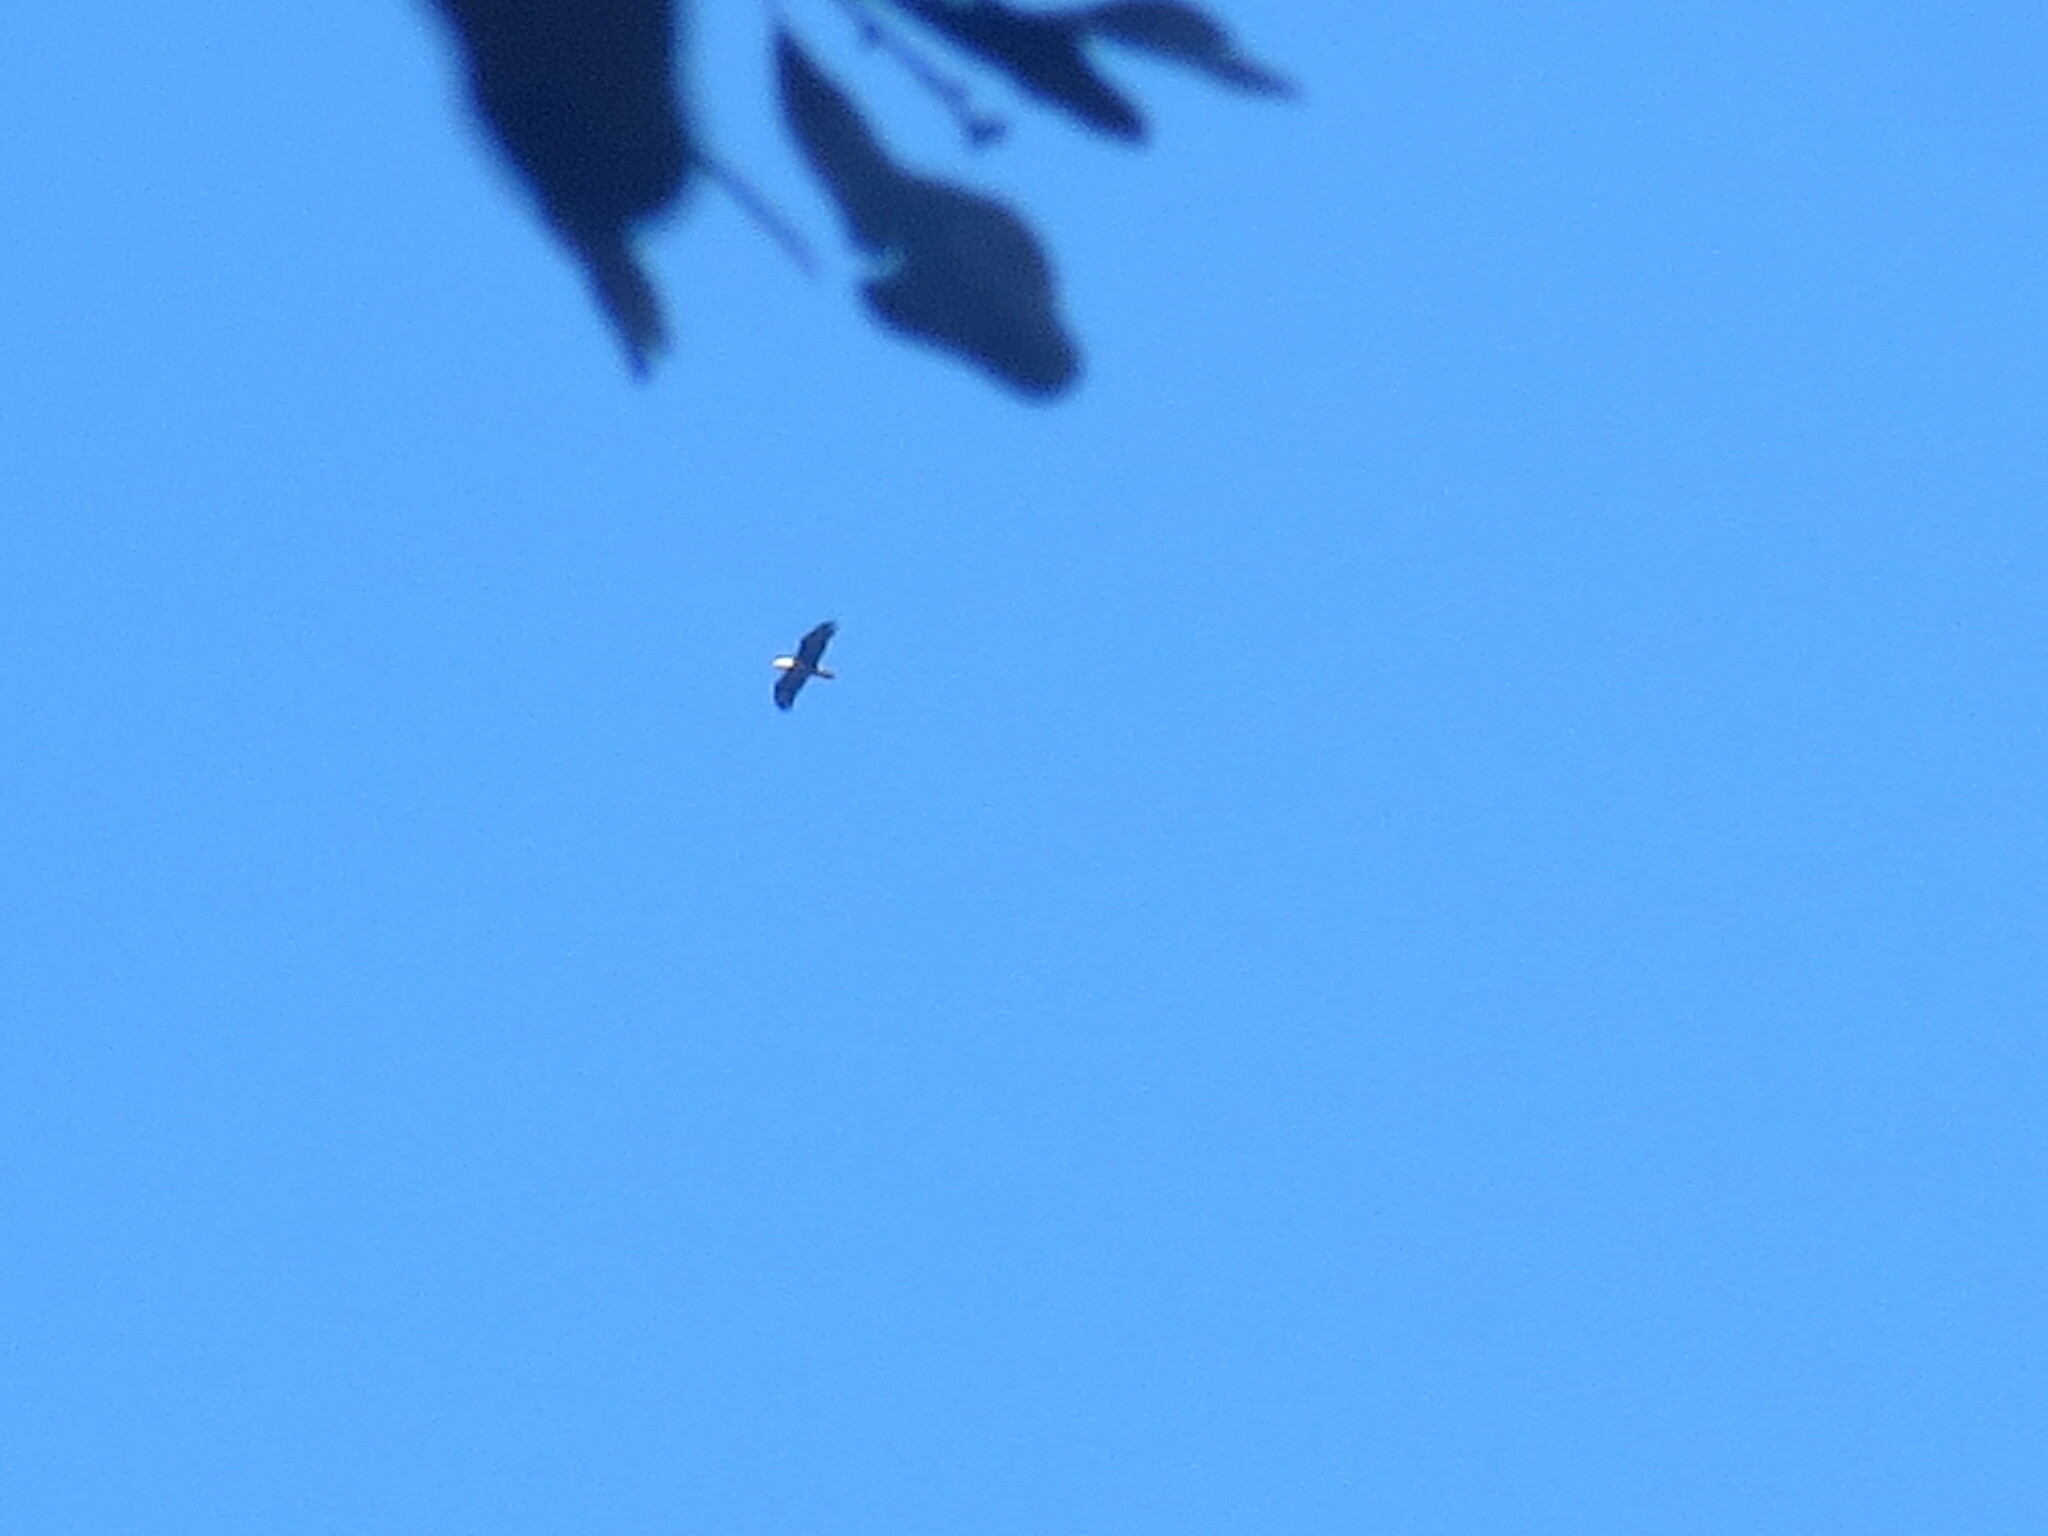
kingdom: Animalia
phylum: Chordata
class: Aves
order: Accipitriformes
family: Accipitridae
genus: Haliaeetus
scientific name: Haliaeetus leucocephalus
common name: Bald eagle
